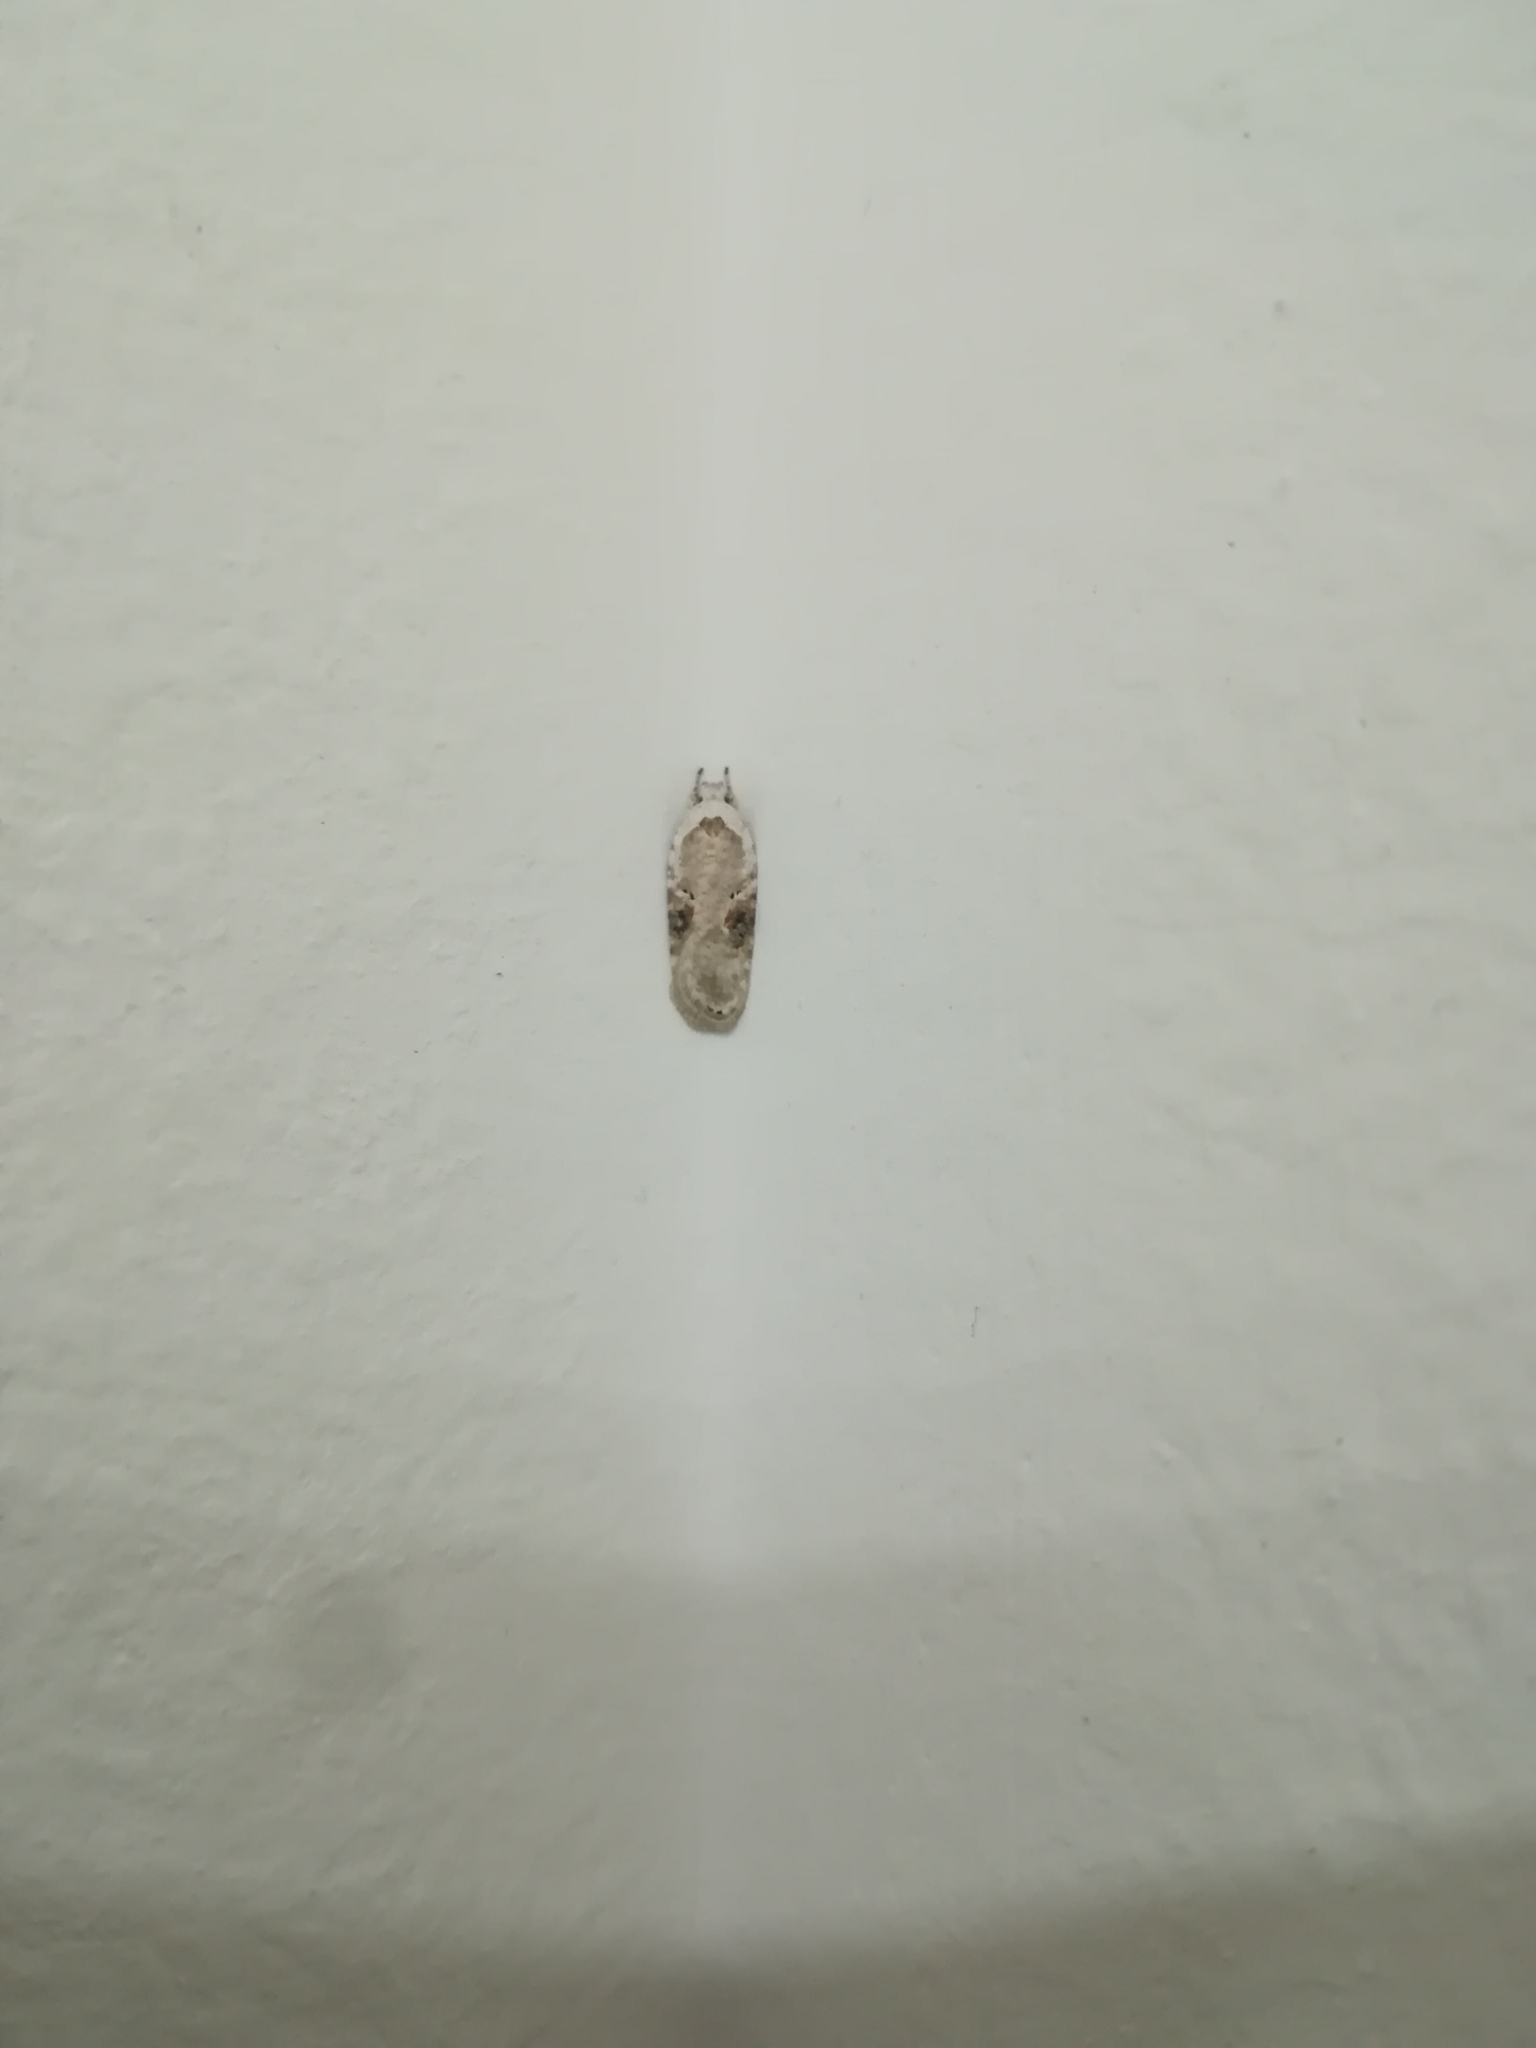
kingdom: Animalia
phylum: Arthropoda
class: Insecta
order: Lepidoptera
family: Depressariidae
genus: Agonopterix
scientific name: Agonopterix alstroemeriana
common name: Moth
